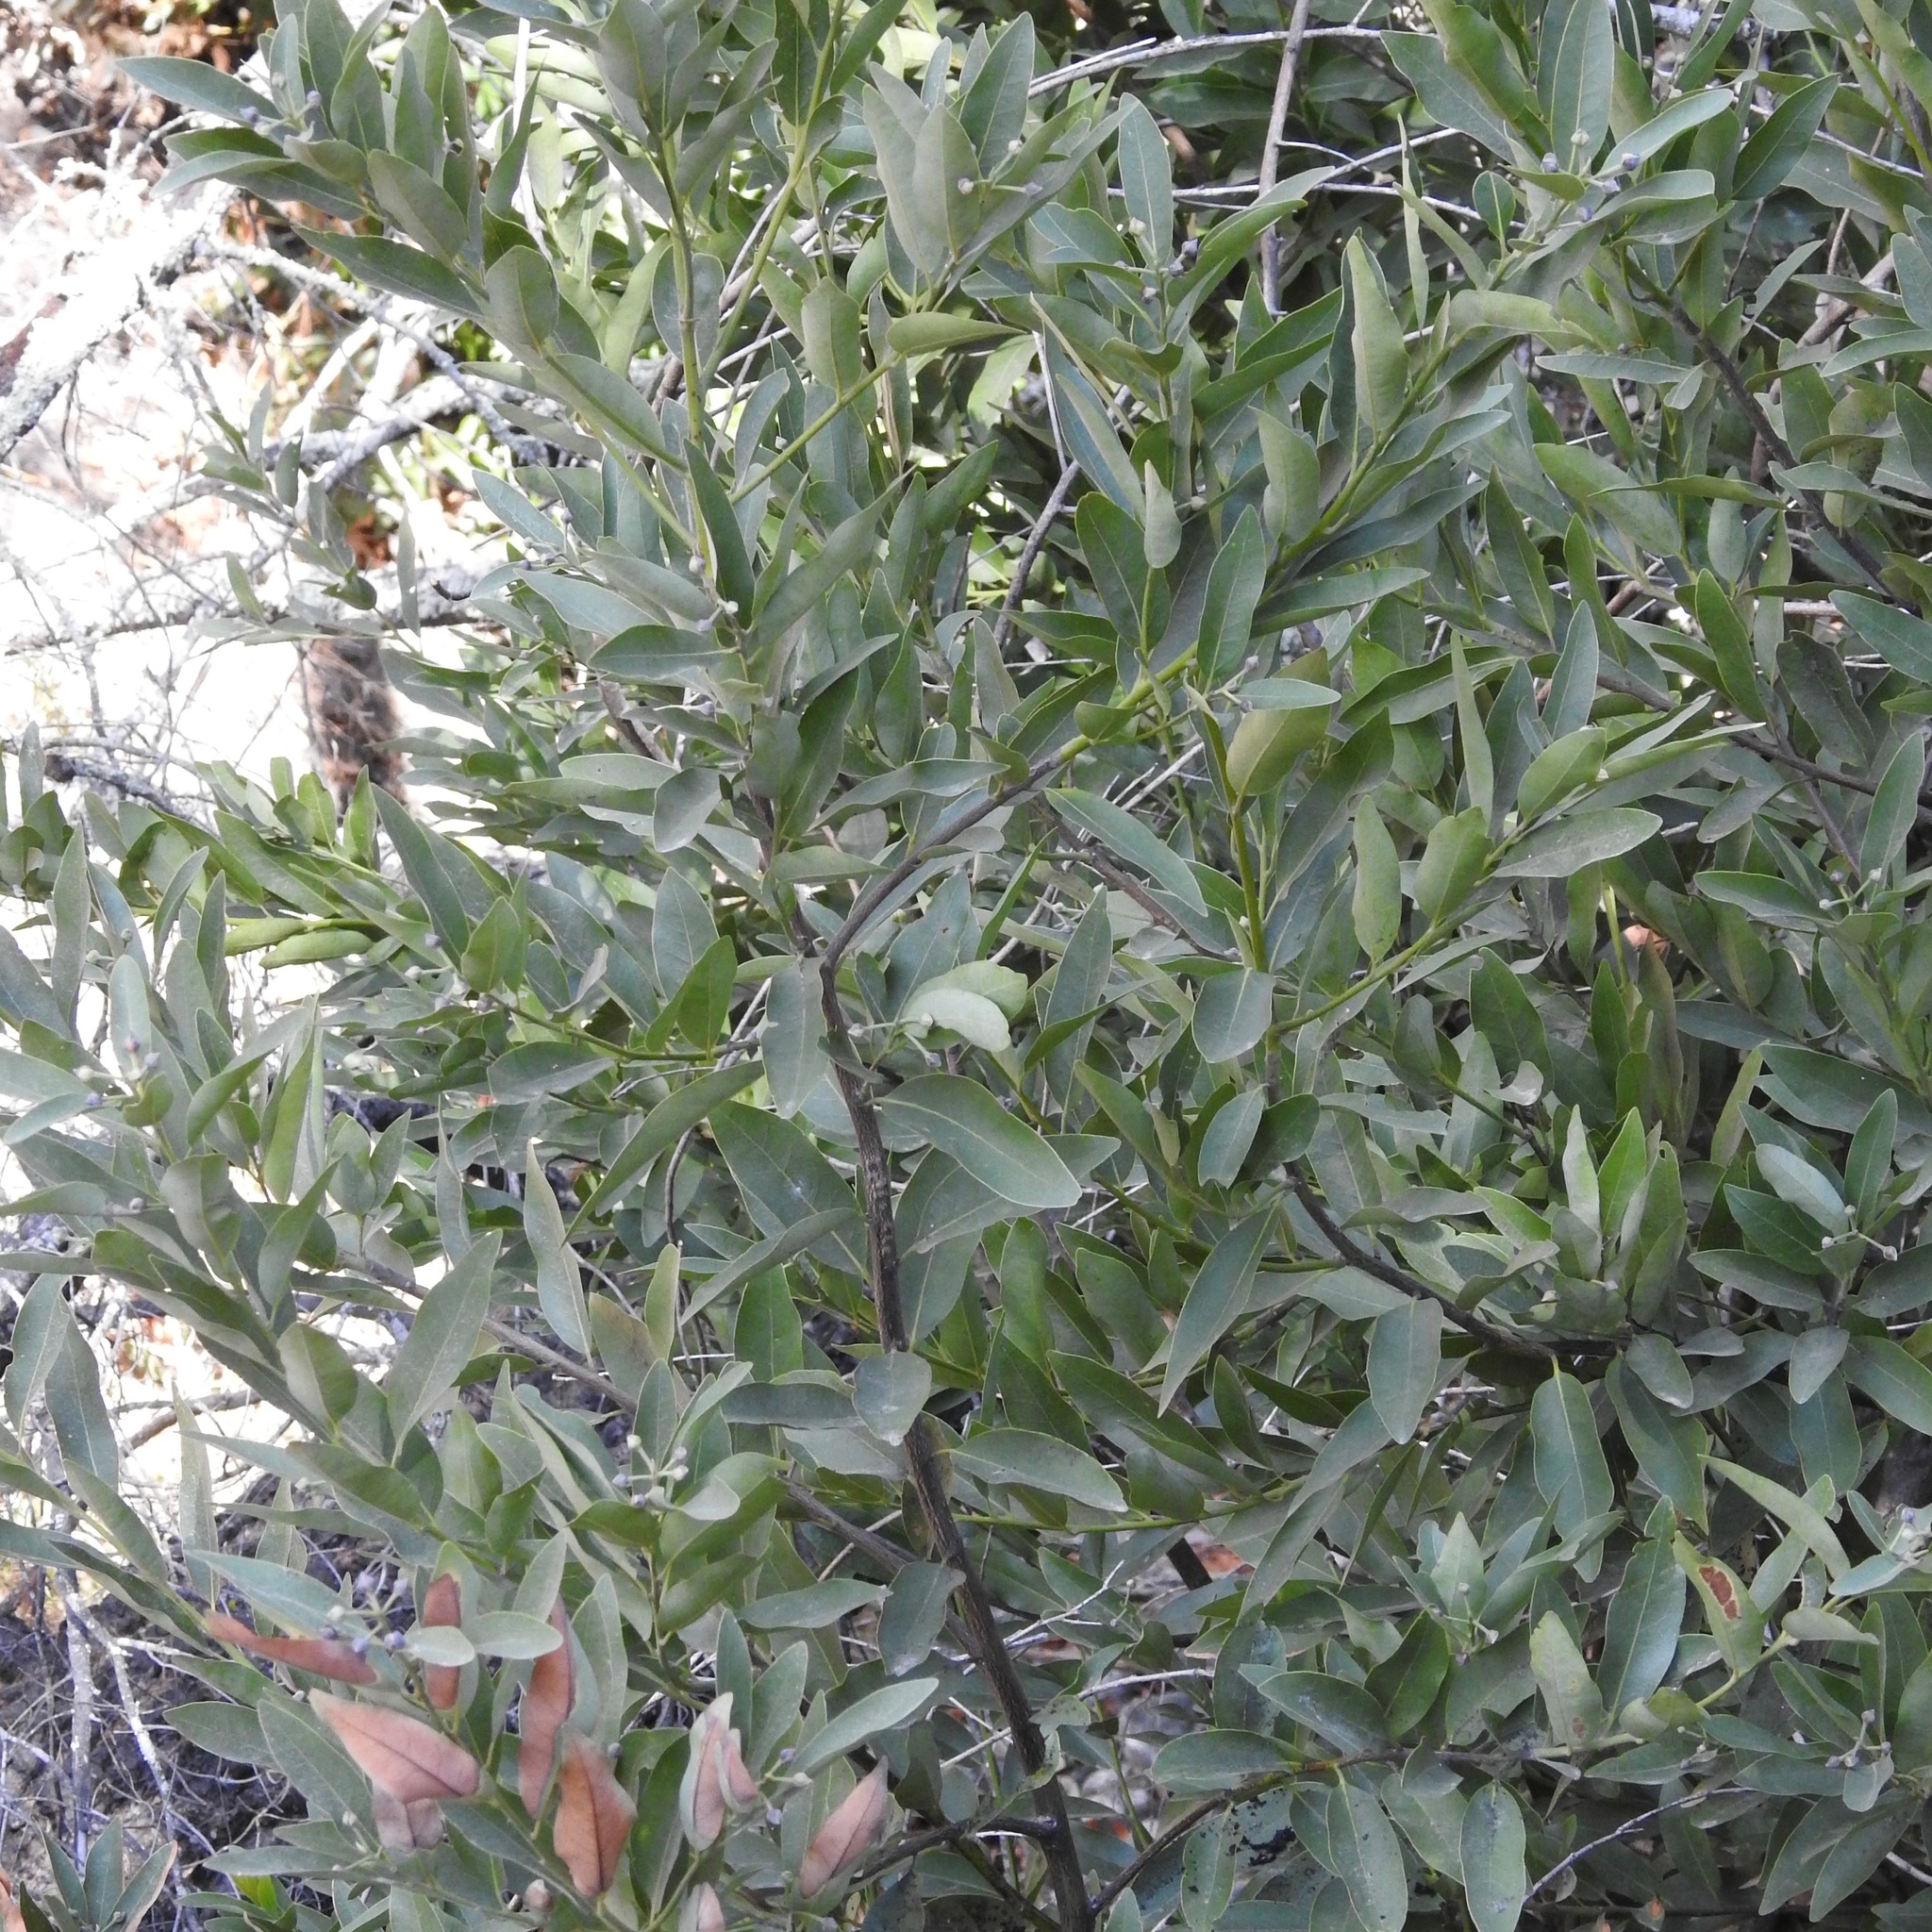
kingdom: Plantae
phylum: Tracheophyta
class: Magnoliopsida
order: Laurales
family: Lauraceae
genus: Umbellularia
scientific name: Umbellularia californica
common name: California bay
